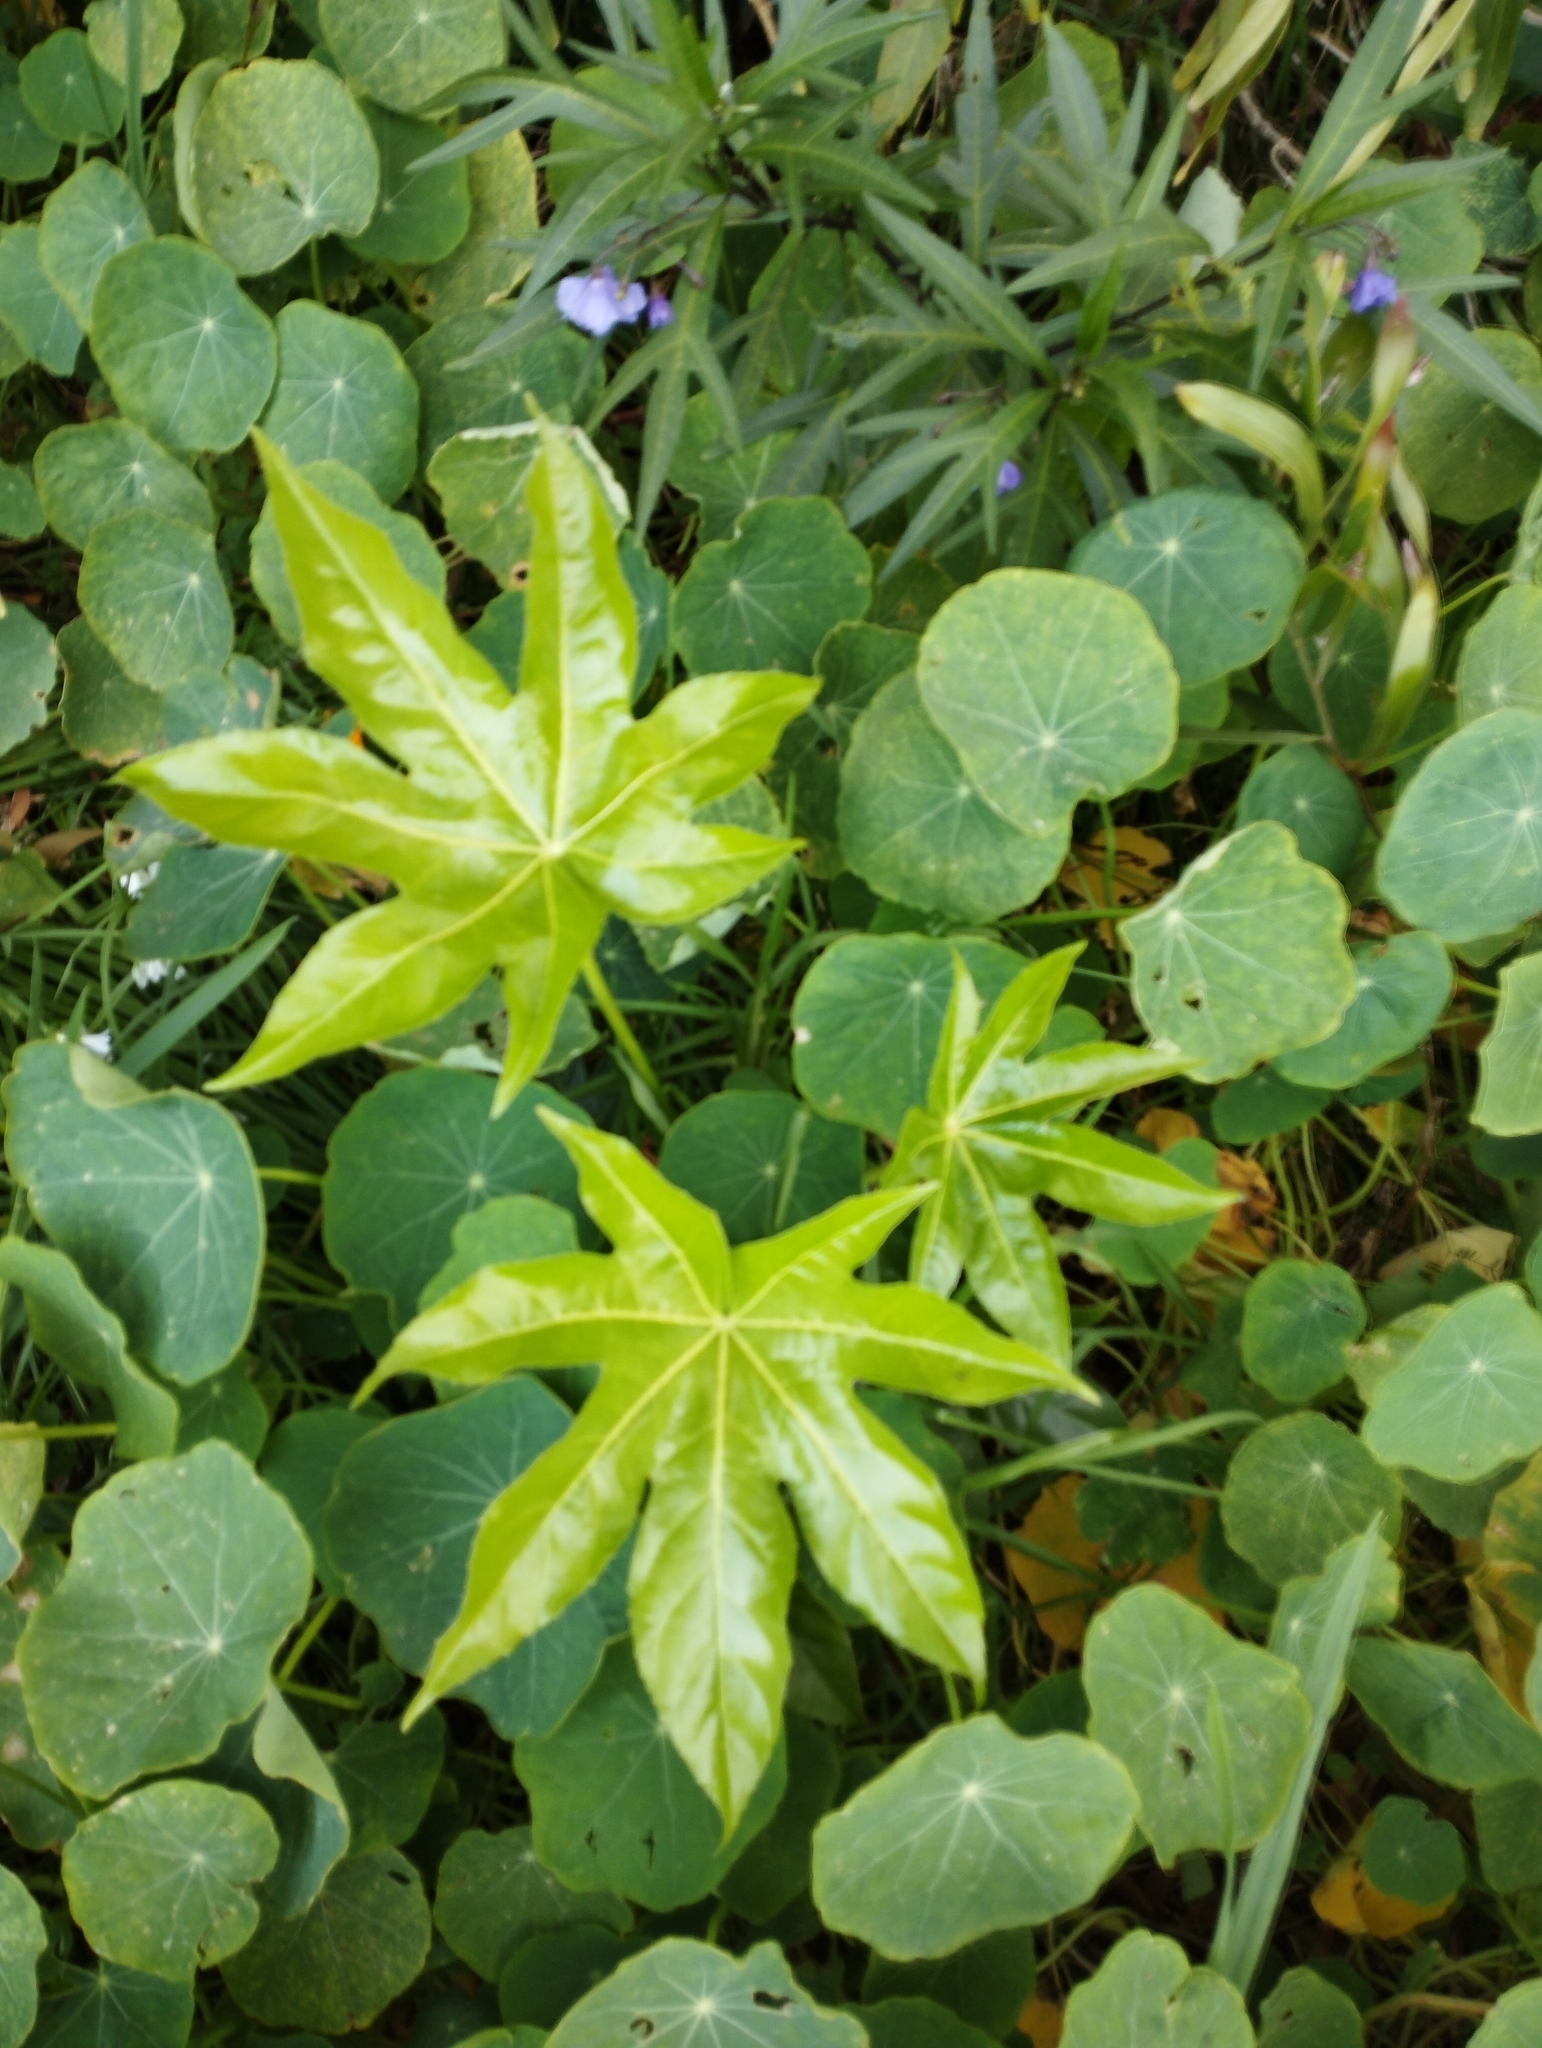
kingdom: Plantae
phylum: Tracheophyta
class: Magnoliopsida
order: Apiales
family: Araliaceae
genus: Fatsia
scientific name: Fatsia japonica
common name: Fatsia
